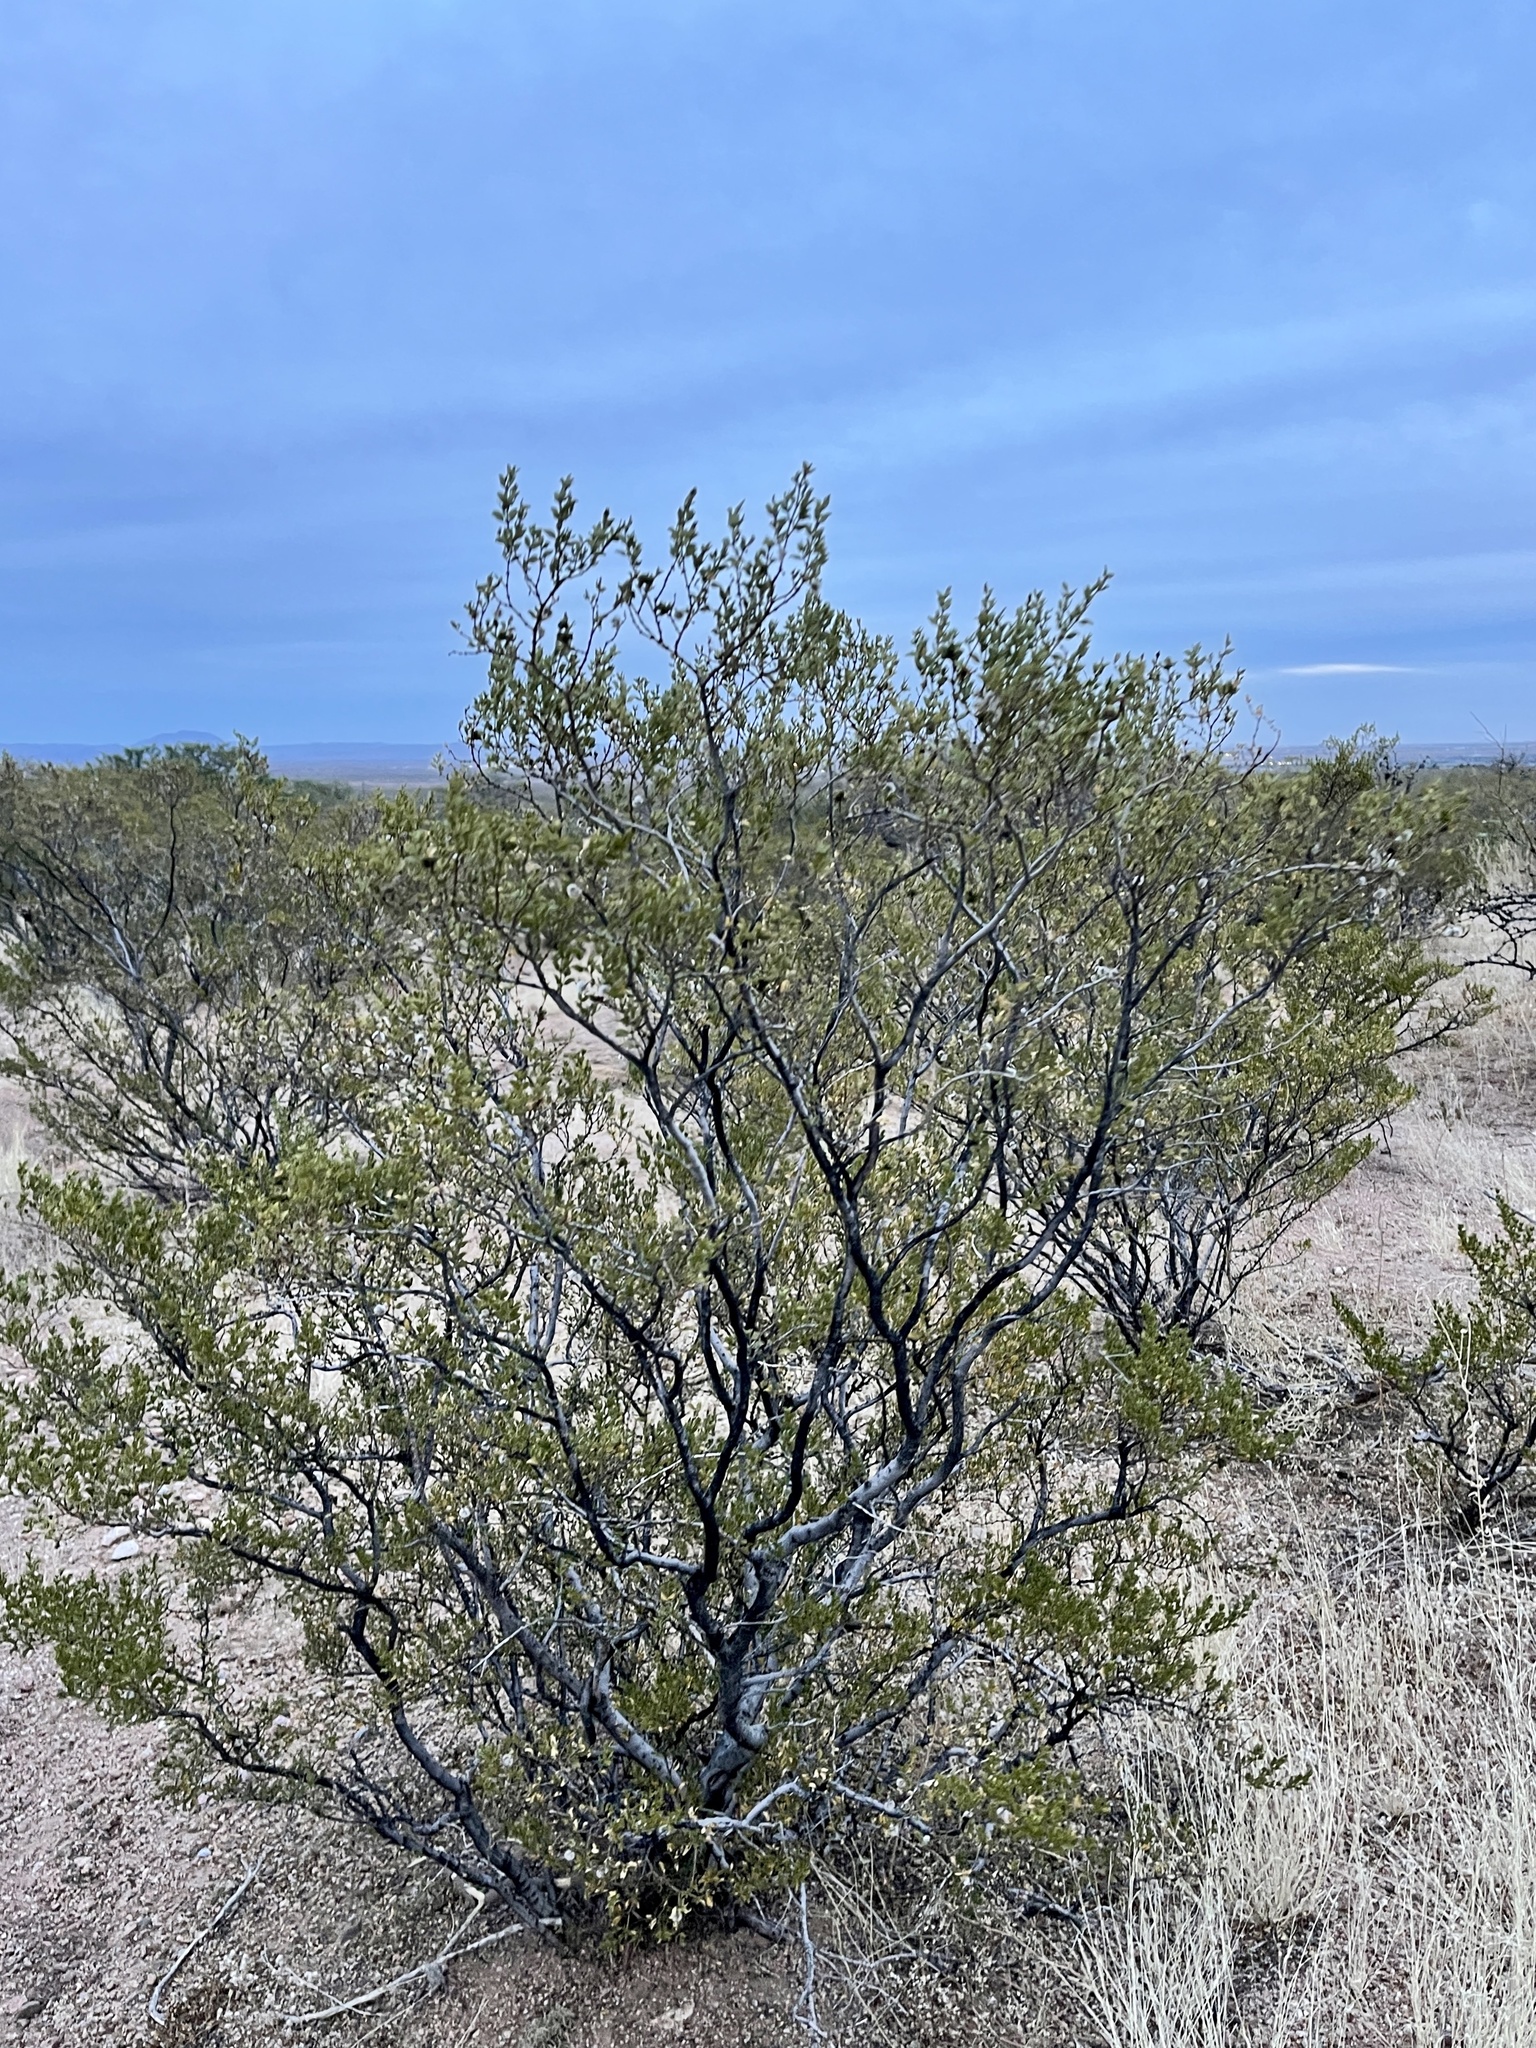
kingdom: Plantae
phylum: Tracheophyta
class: Magnoliopsida
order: Zygophyllales
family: Zygophyllaceae
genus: Larrea
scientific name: Larrea tridentata
